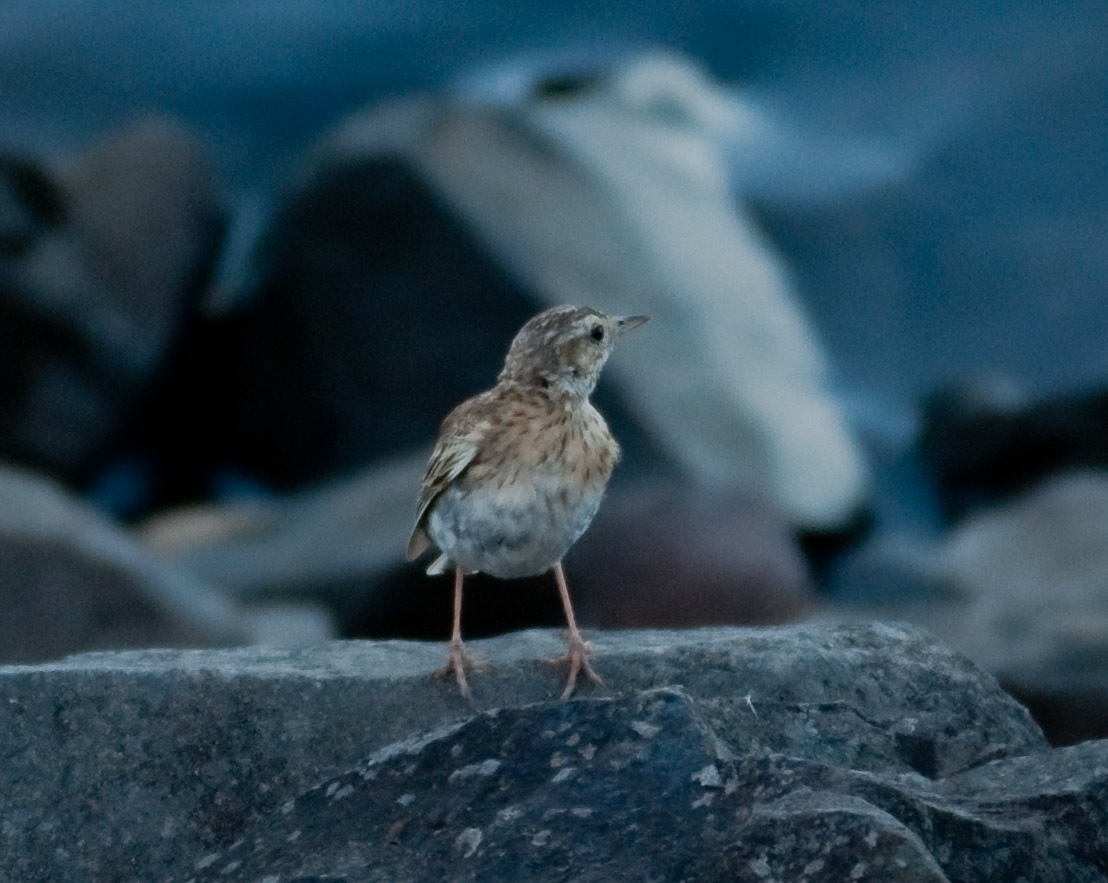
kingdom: Animalia
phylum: Chordata
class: Aves
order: Passeriformes
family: Motacillidae
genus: Anthus
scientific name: Anthus australis
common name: Australian pipit
